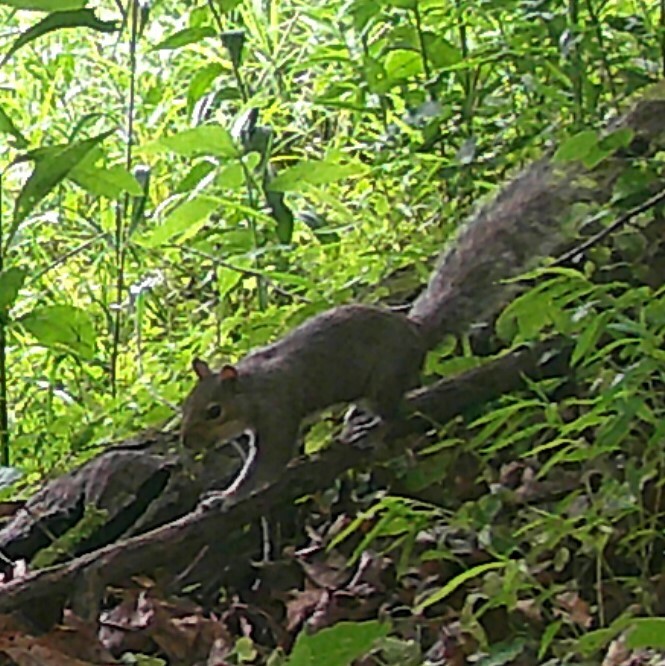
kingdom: Animalia
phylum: Chordata
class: Mammalia
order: Rodentia
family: Sciuridae
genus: Sciurus
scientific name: Sciurus carolinensis
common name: Eastern gray squirrel
